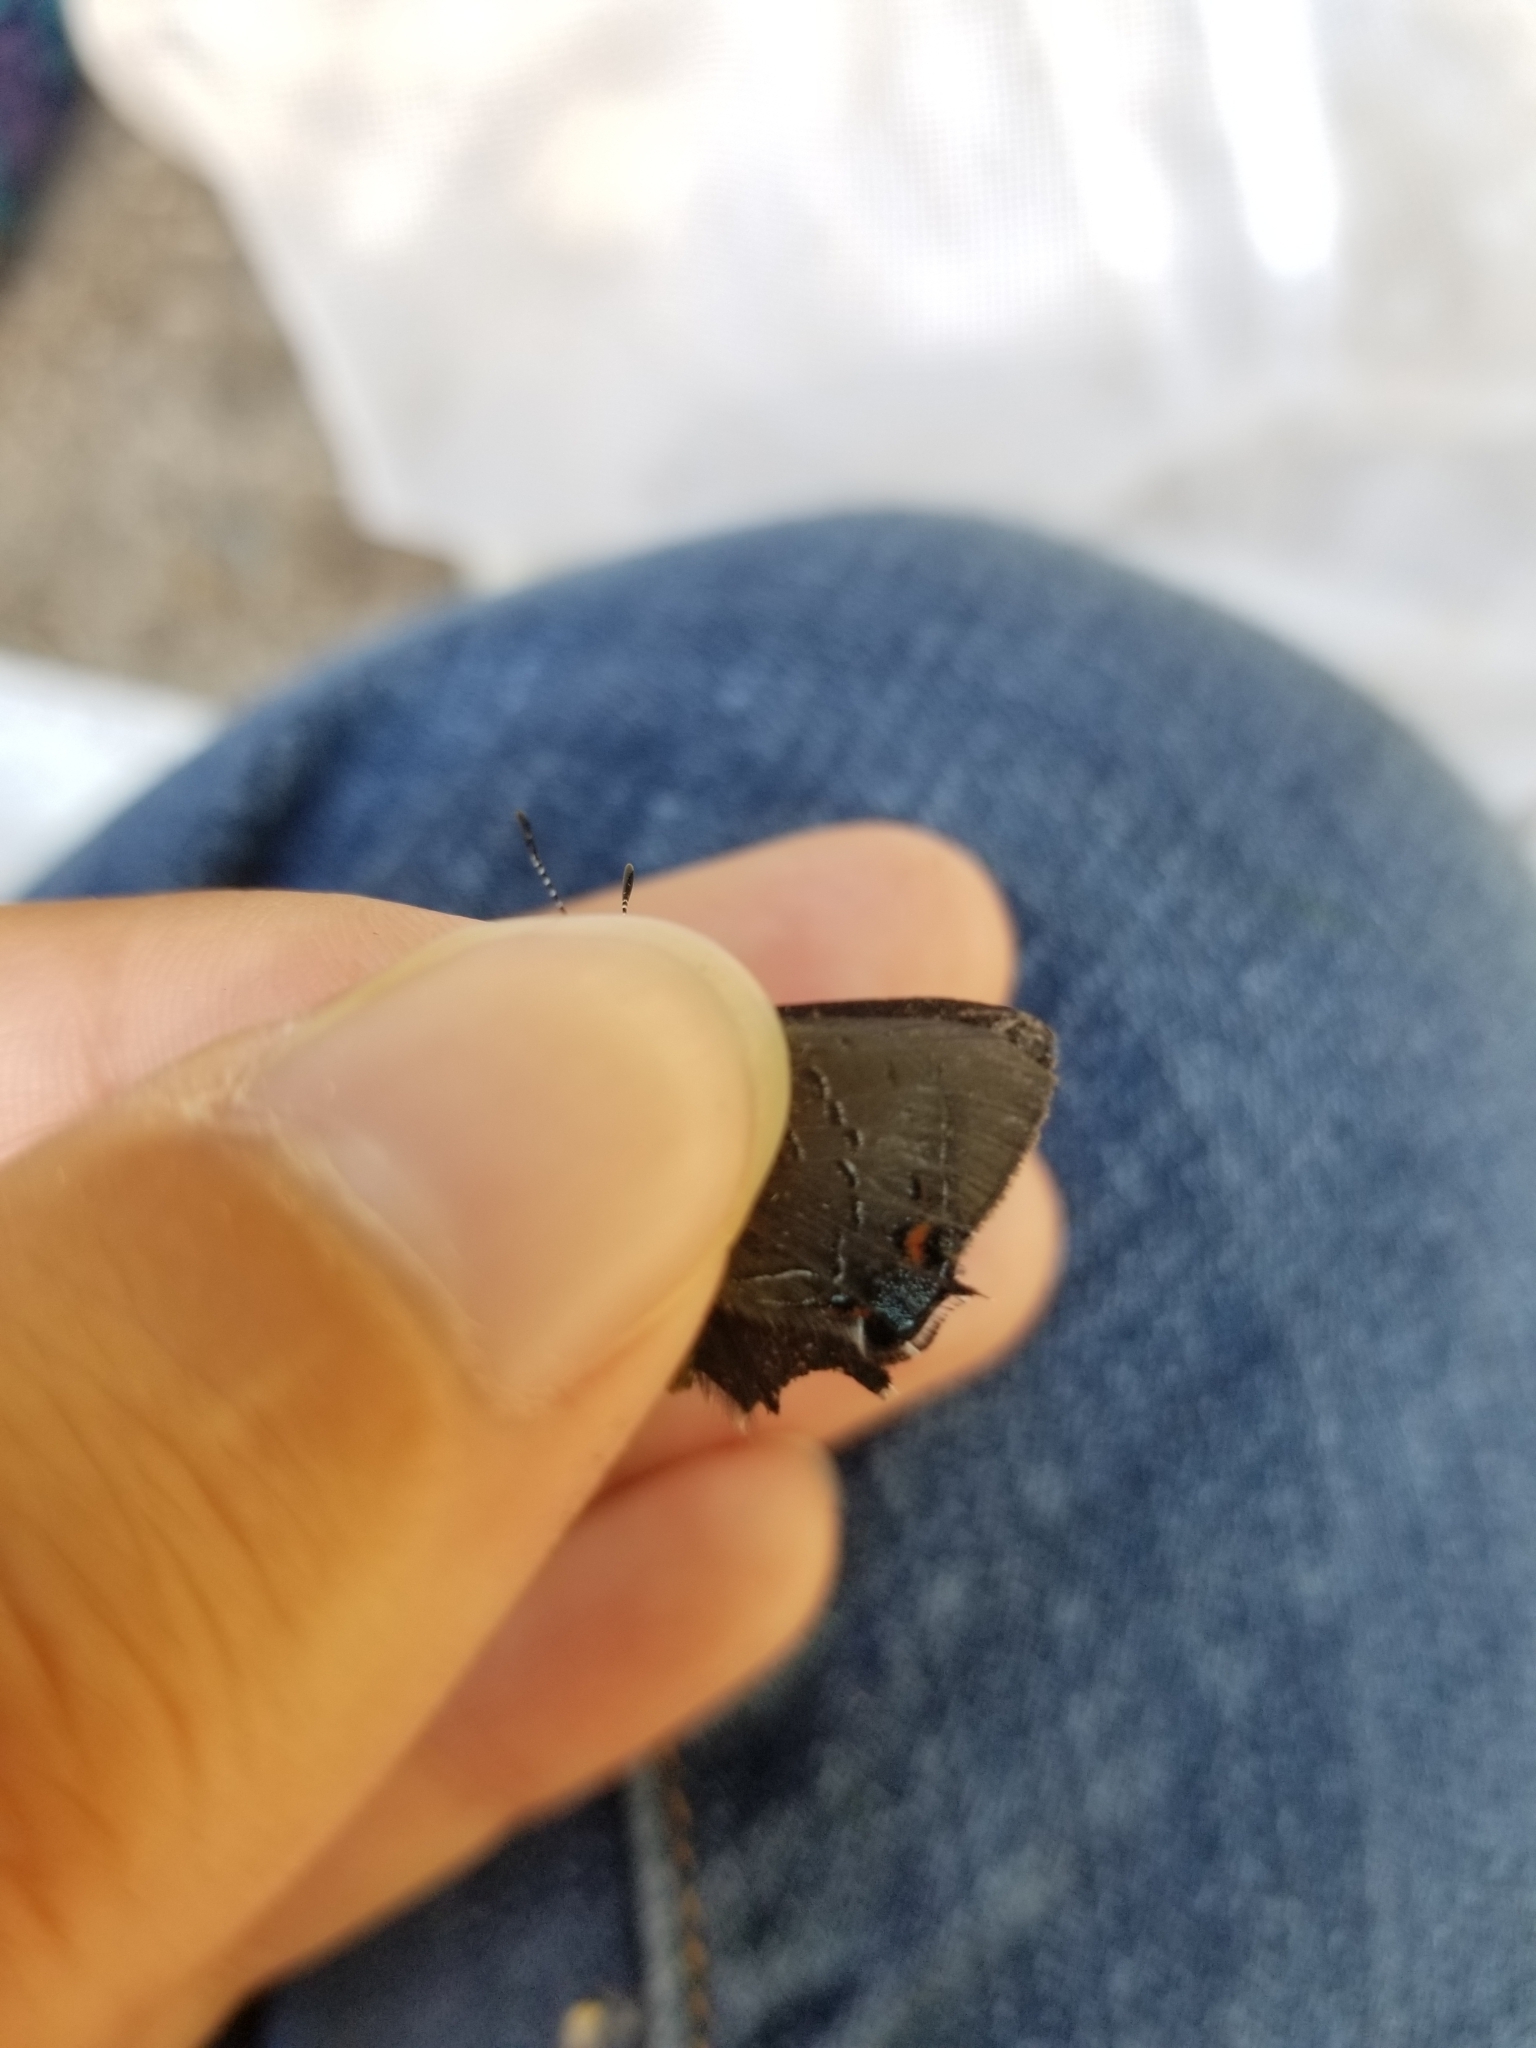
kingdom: Animalia
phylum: Arthropoda
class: Insecta
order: Lepidoptera
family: Lycaenidae
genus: Satyrium
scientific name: Satyrium calanus
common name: Banded hairstreak
